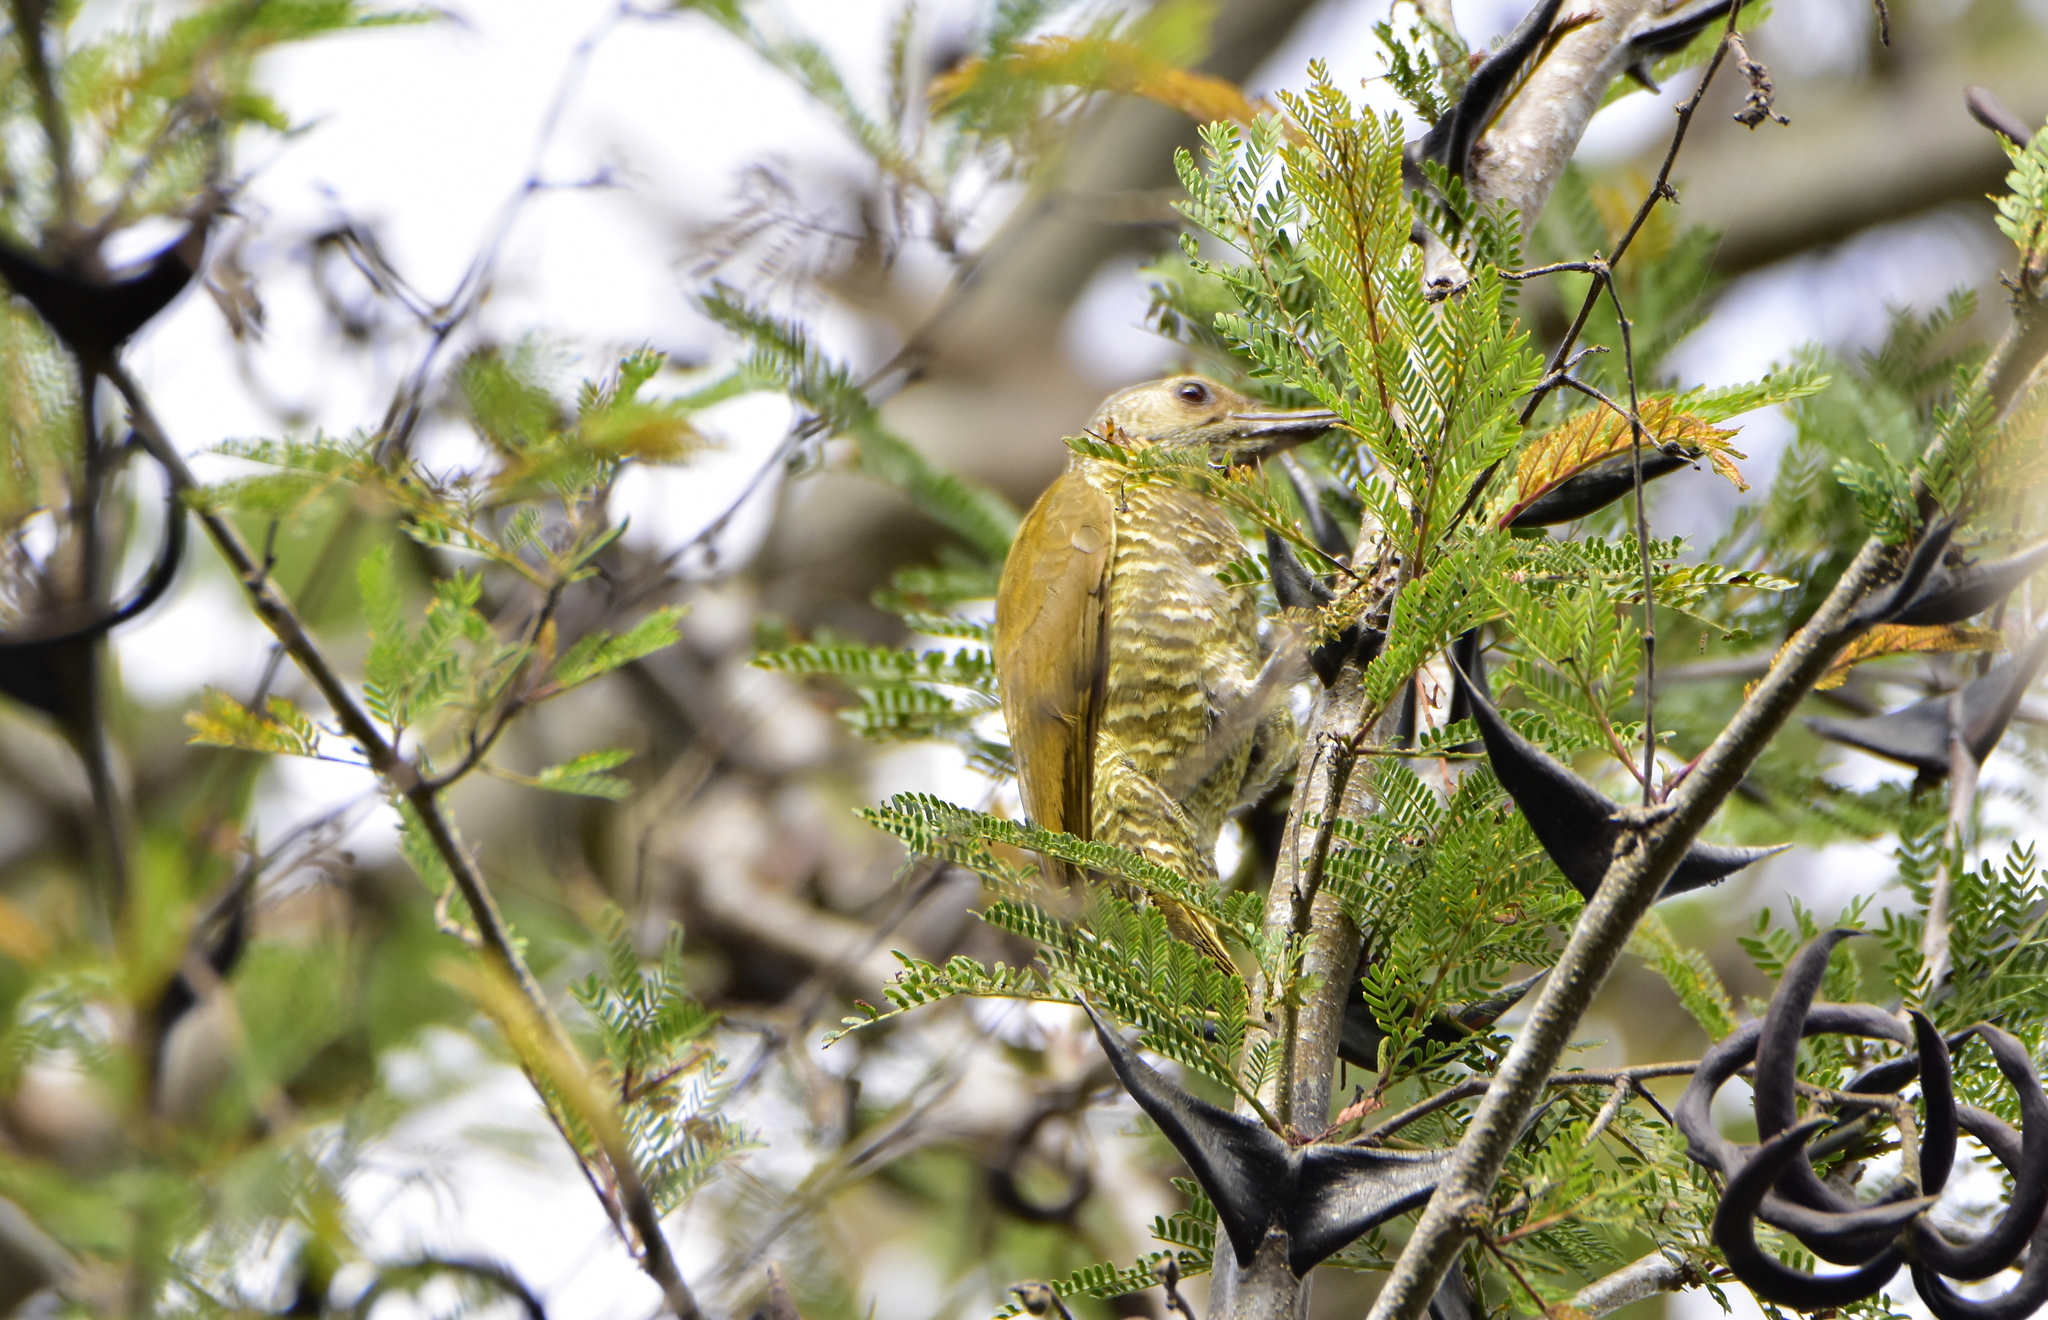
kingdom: Animalia
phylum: Chordata
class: Aves
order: Piciformes
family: Picidae
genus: Colaptes
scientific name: Colaptes auricularis
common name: Grey-crowned woodpecker
